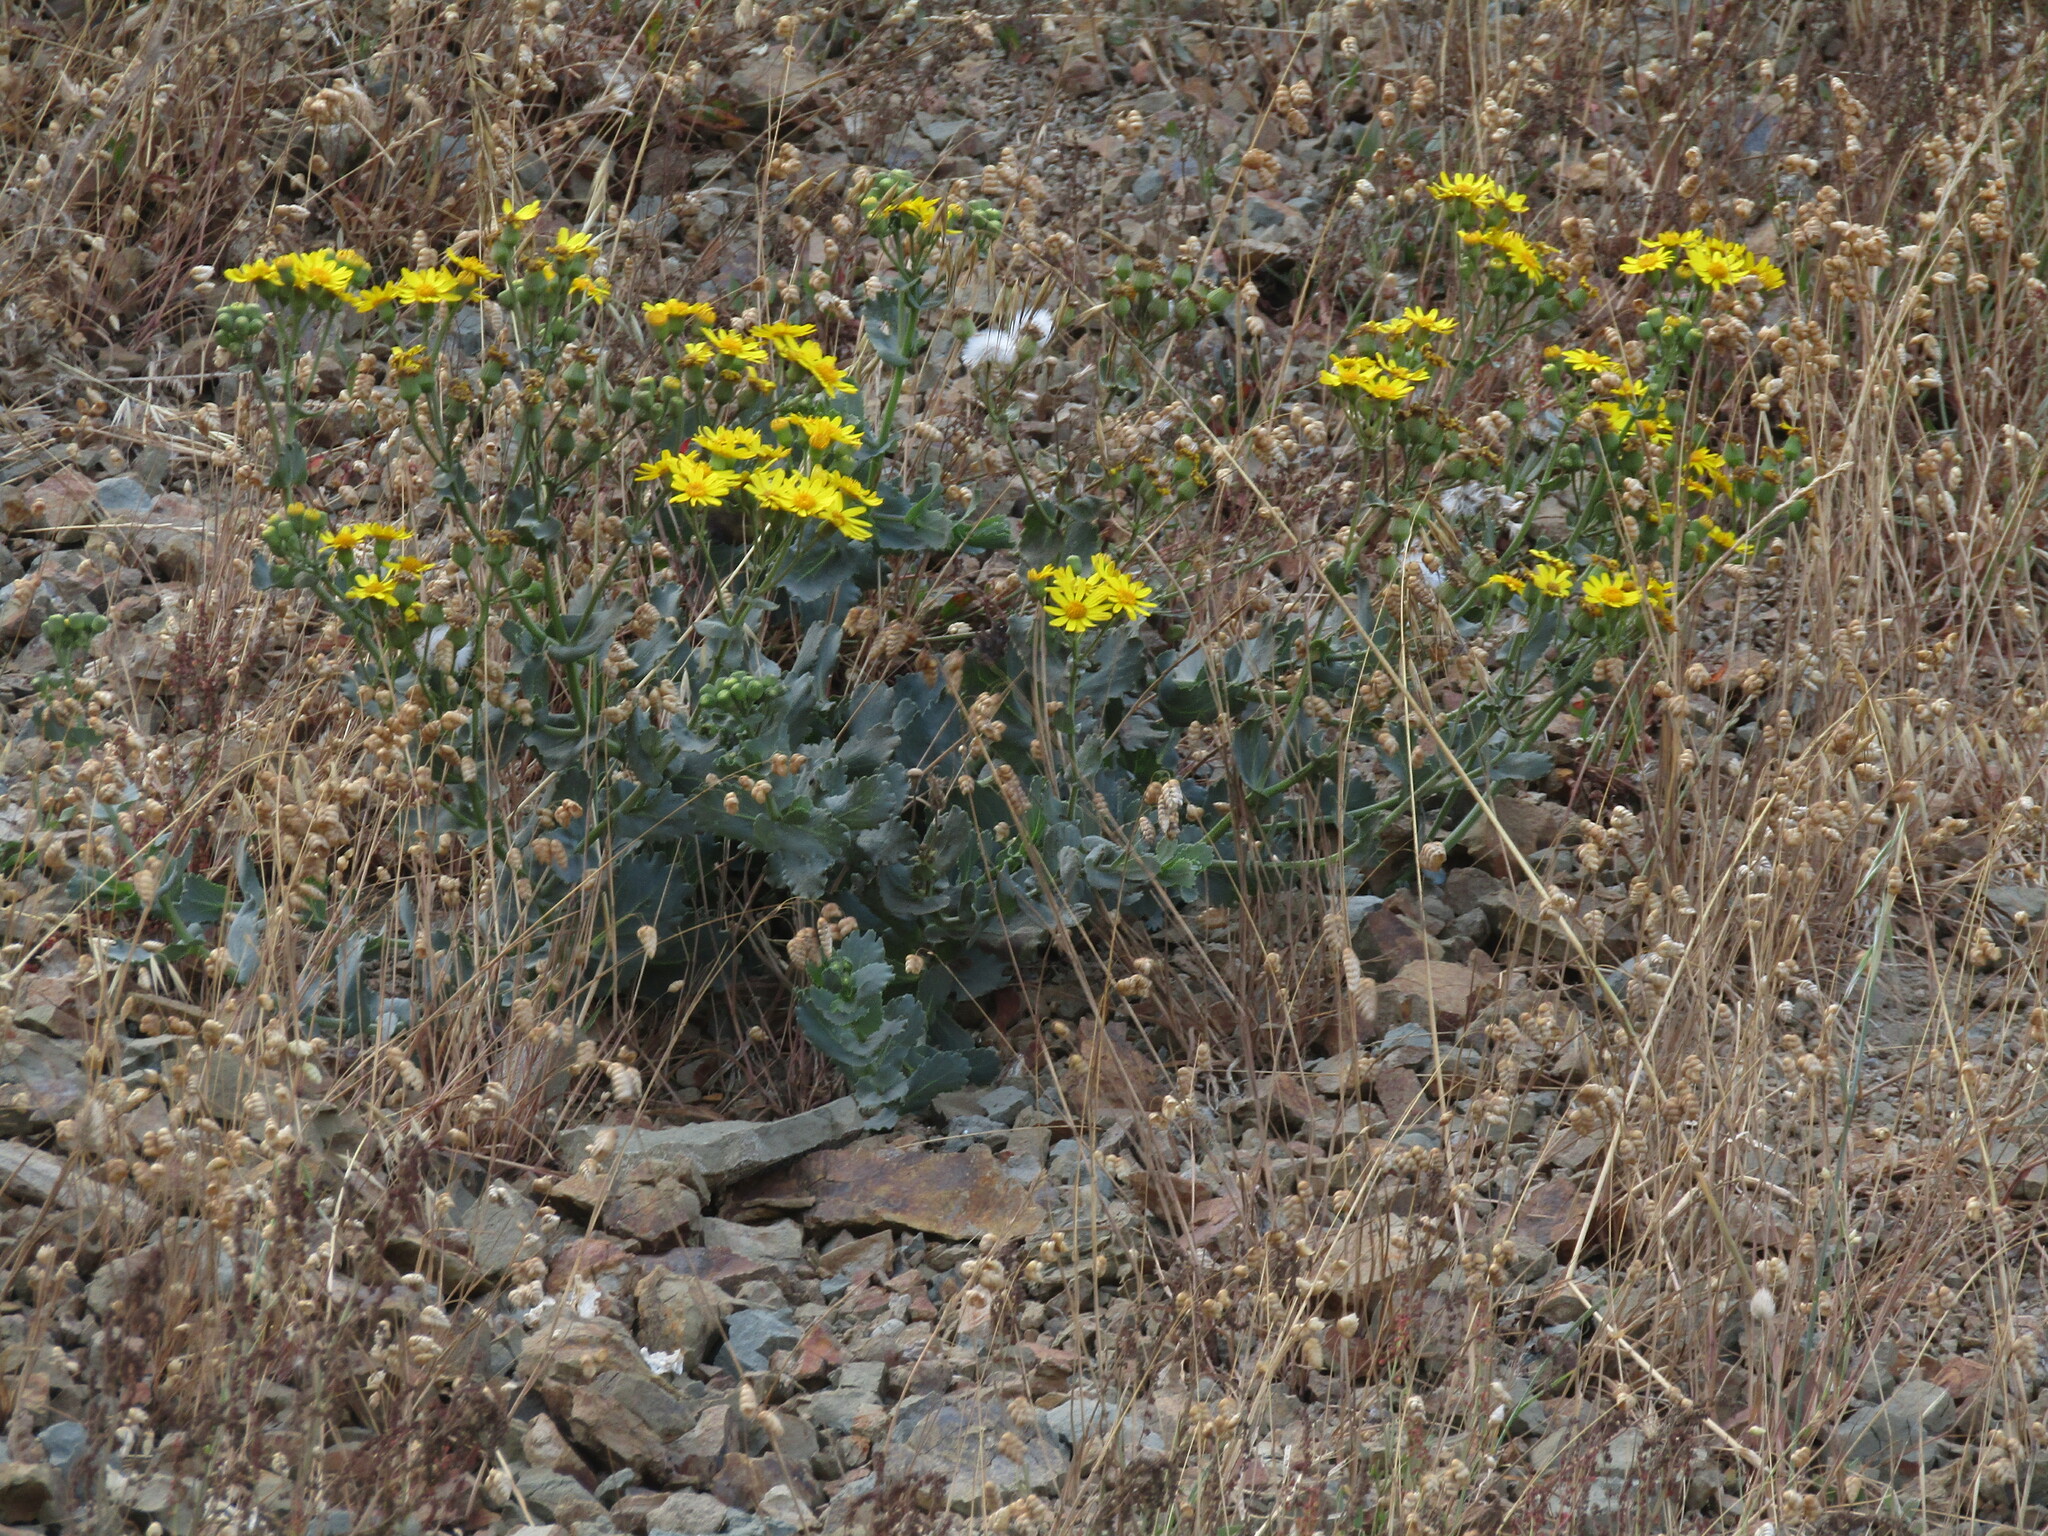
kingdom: Plantae
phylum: Tracheophyta
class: Magnoliopsida
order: Asterales
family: Asteraceae
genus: Senecio
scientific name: Senecio nigrescens
